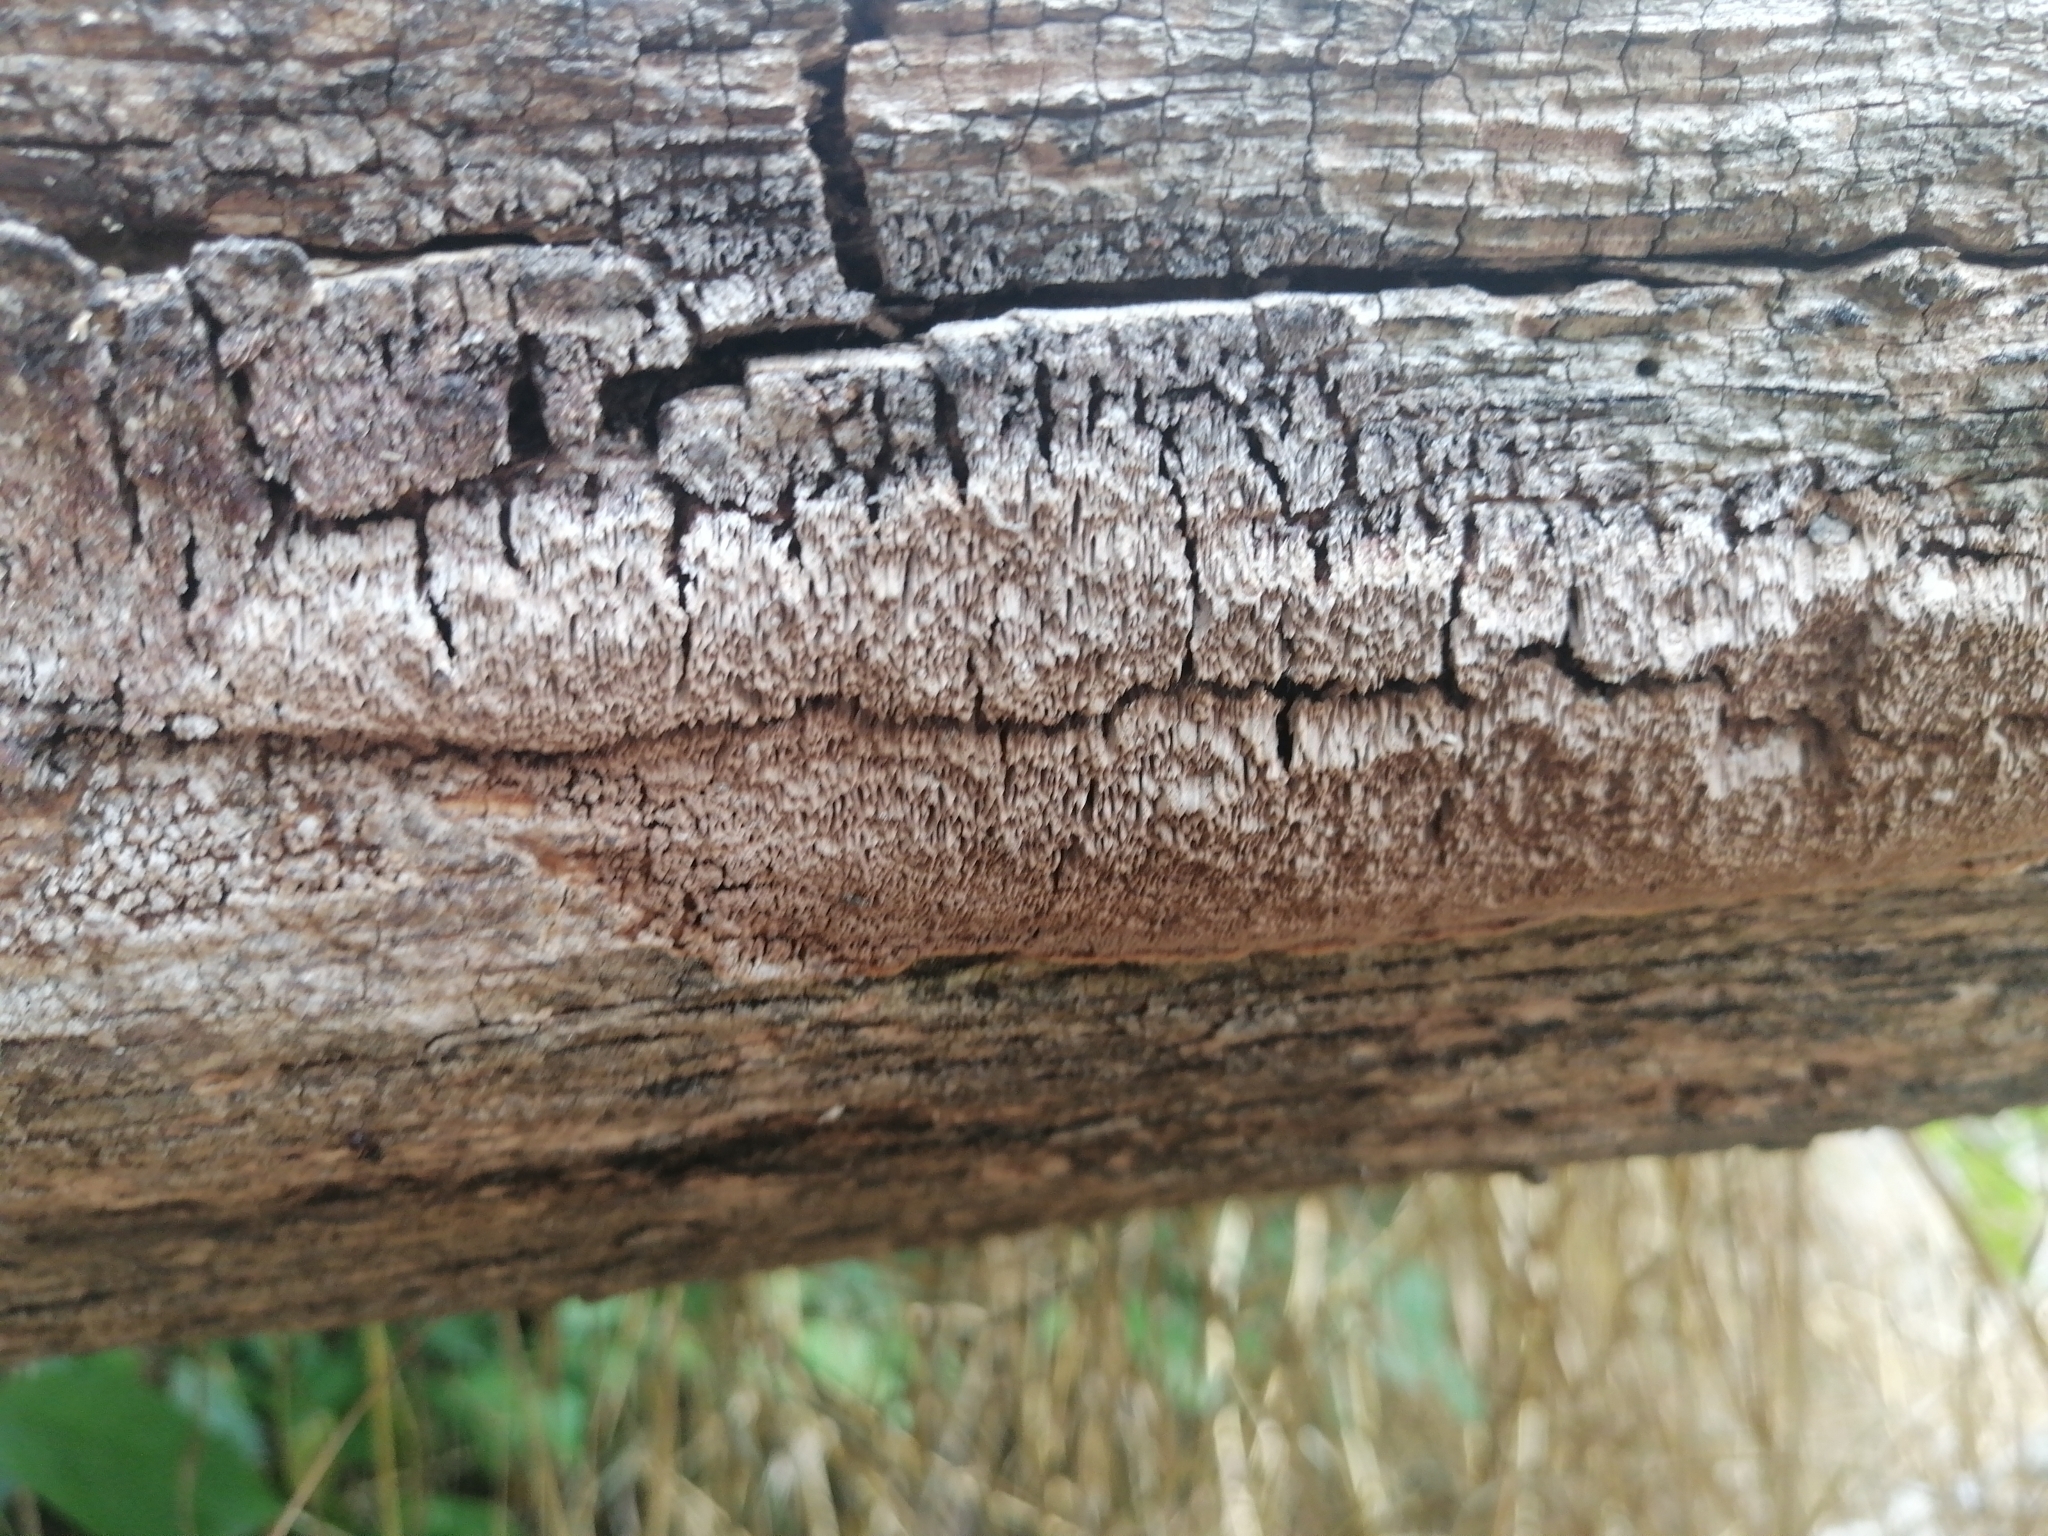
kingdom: Fungi
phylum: Basidiomycota
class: Agaricomycetes
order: Hymenochaetales
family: Schizoporaceae
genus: Schizopora
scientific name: Schizopora paradoxa
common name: Split porecrust
